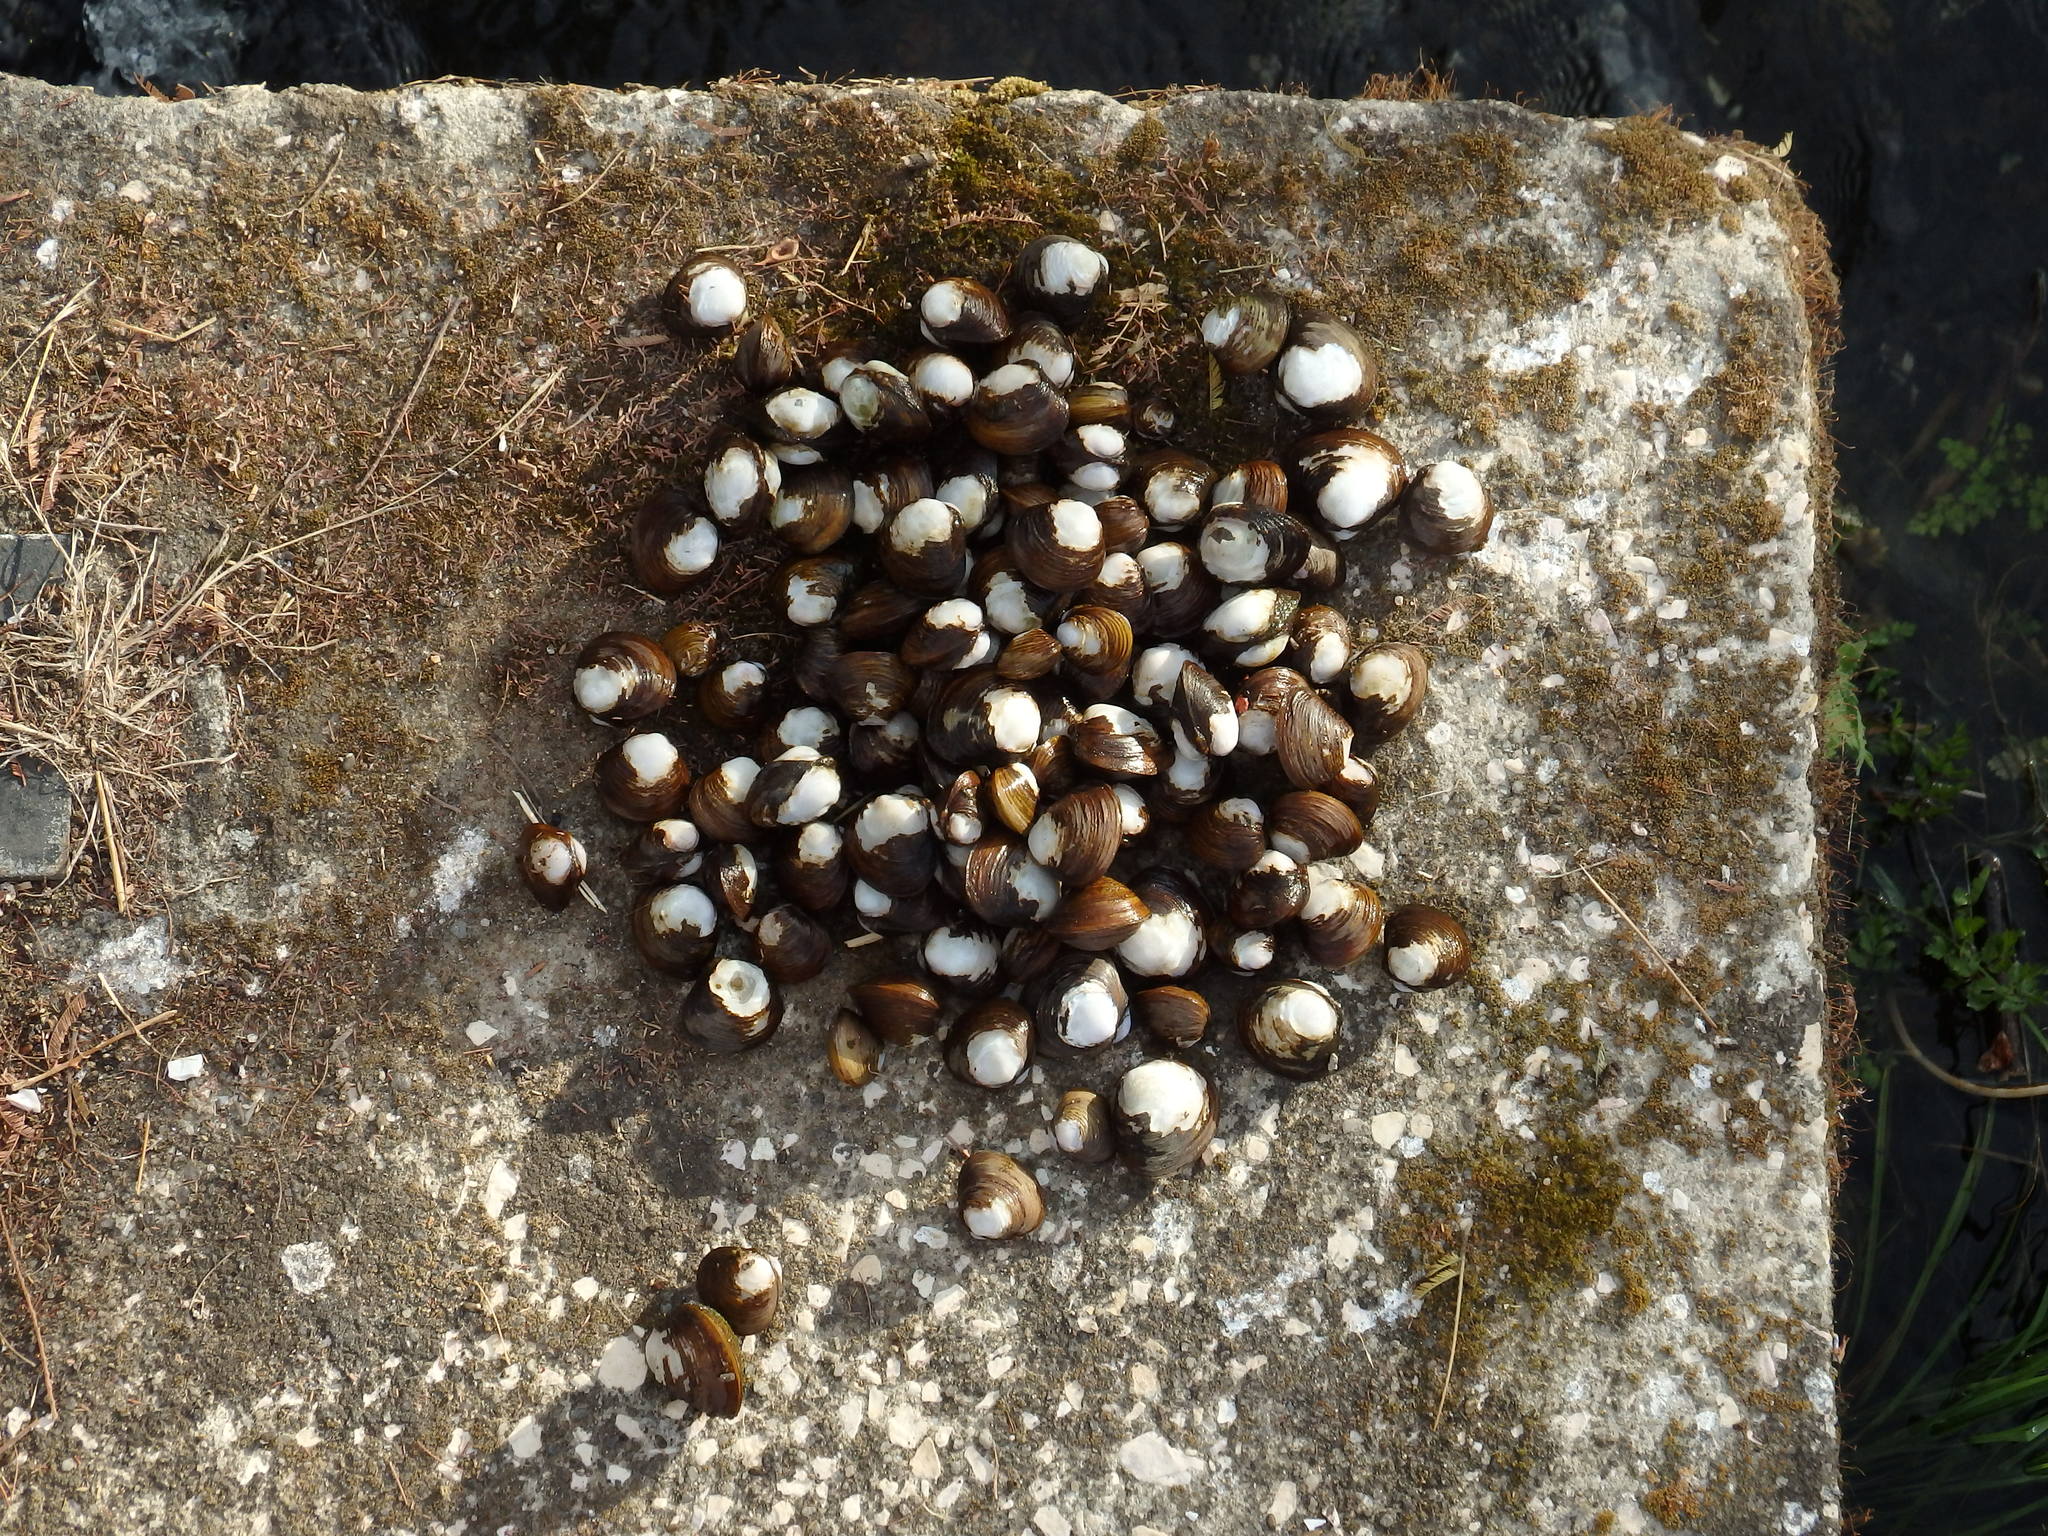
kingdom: Animalia
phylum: Mollusca
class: Bivalvia
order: Venerida
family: Cyrenidae
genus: Corbicula
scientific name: Corbicula fluminea
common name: Asian clam
